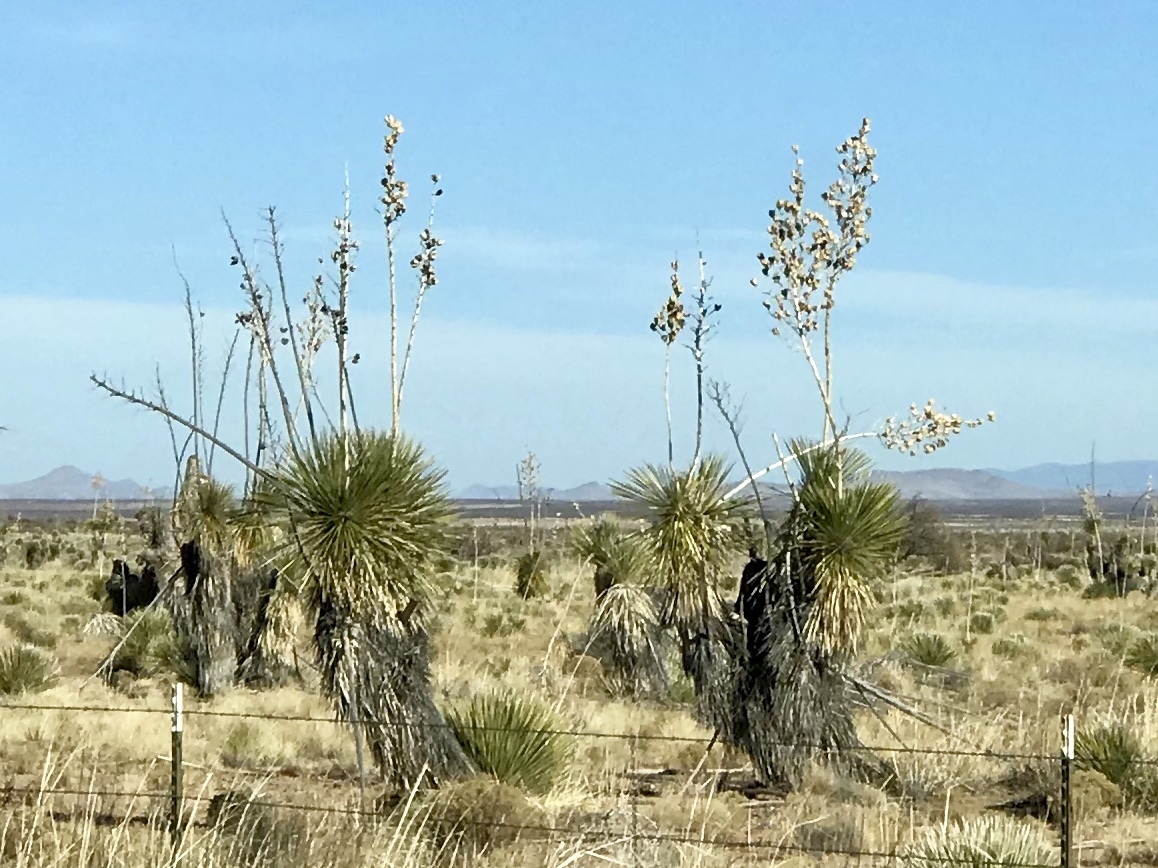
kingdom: Plantae
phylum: Tracheophyta
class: Liliopsida
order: Asparagales
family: Asparagaceae
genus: Yucca
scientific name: Yucca elata
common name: Palmella
